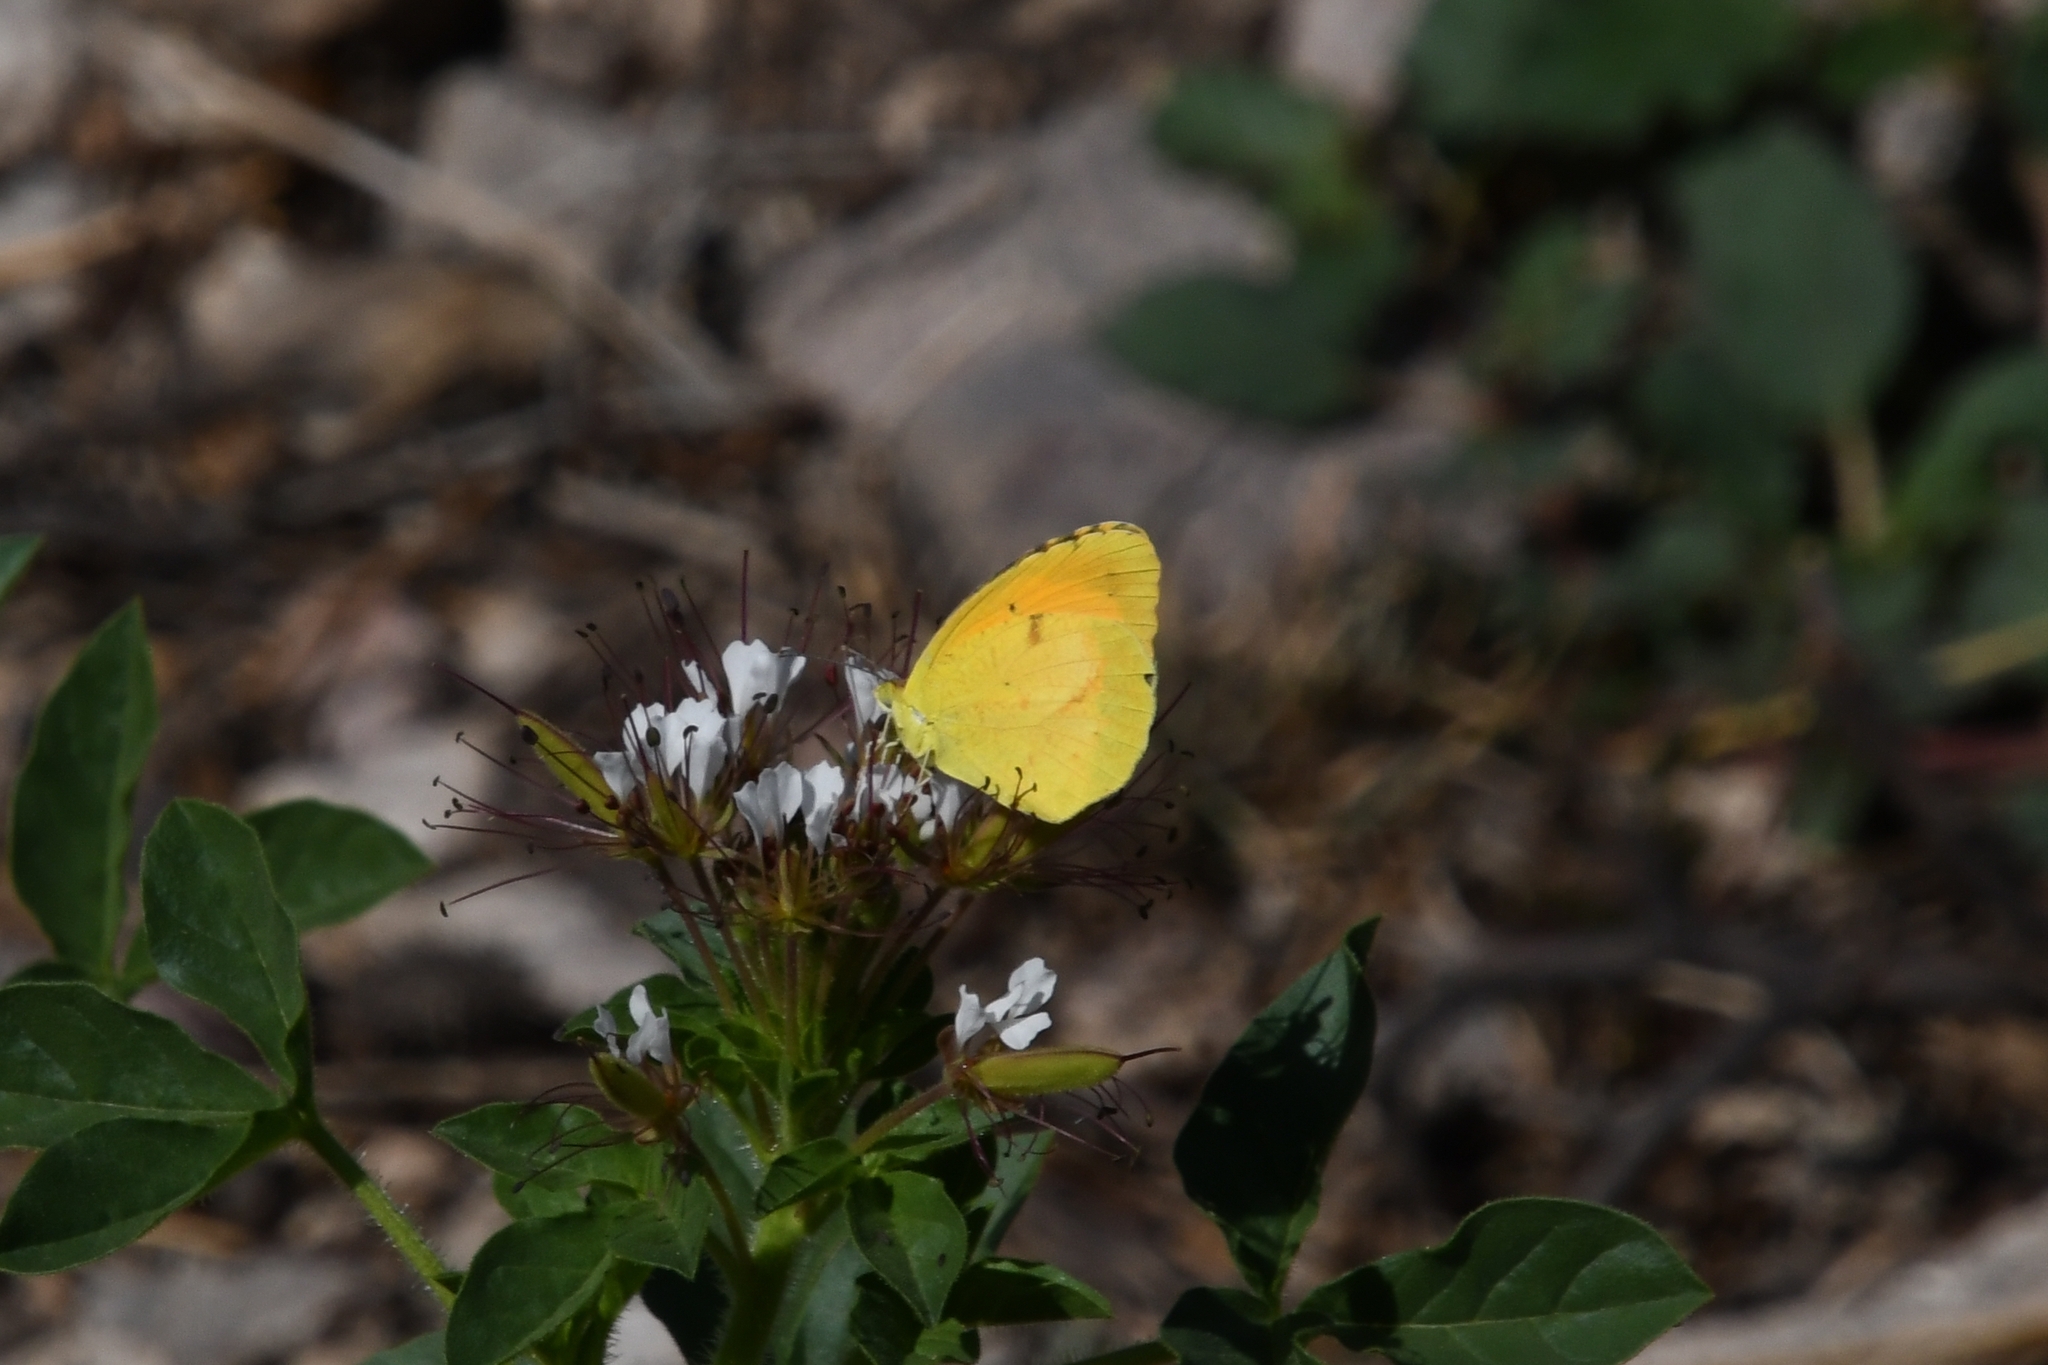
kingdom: Animalia
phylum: Arthropoda
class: Insecta
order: Lepidoptera
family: Pieridae
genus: Abaeis
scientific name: Abaeis nicippe
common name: Sleepy orange
